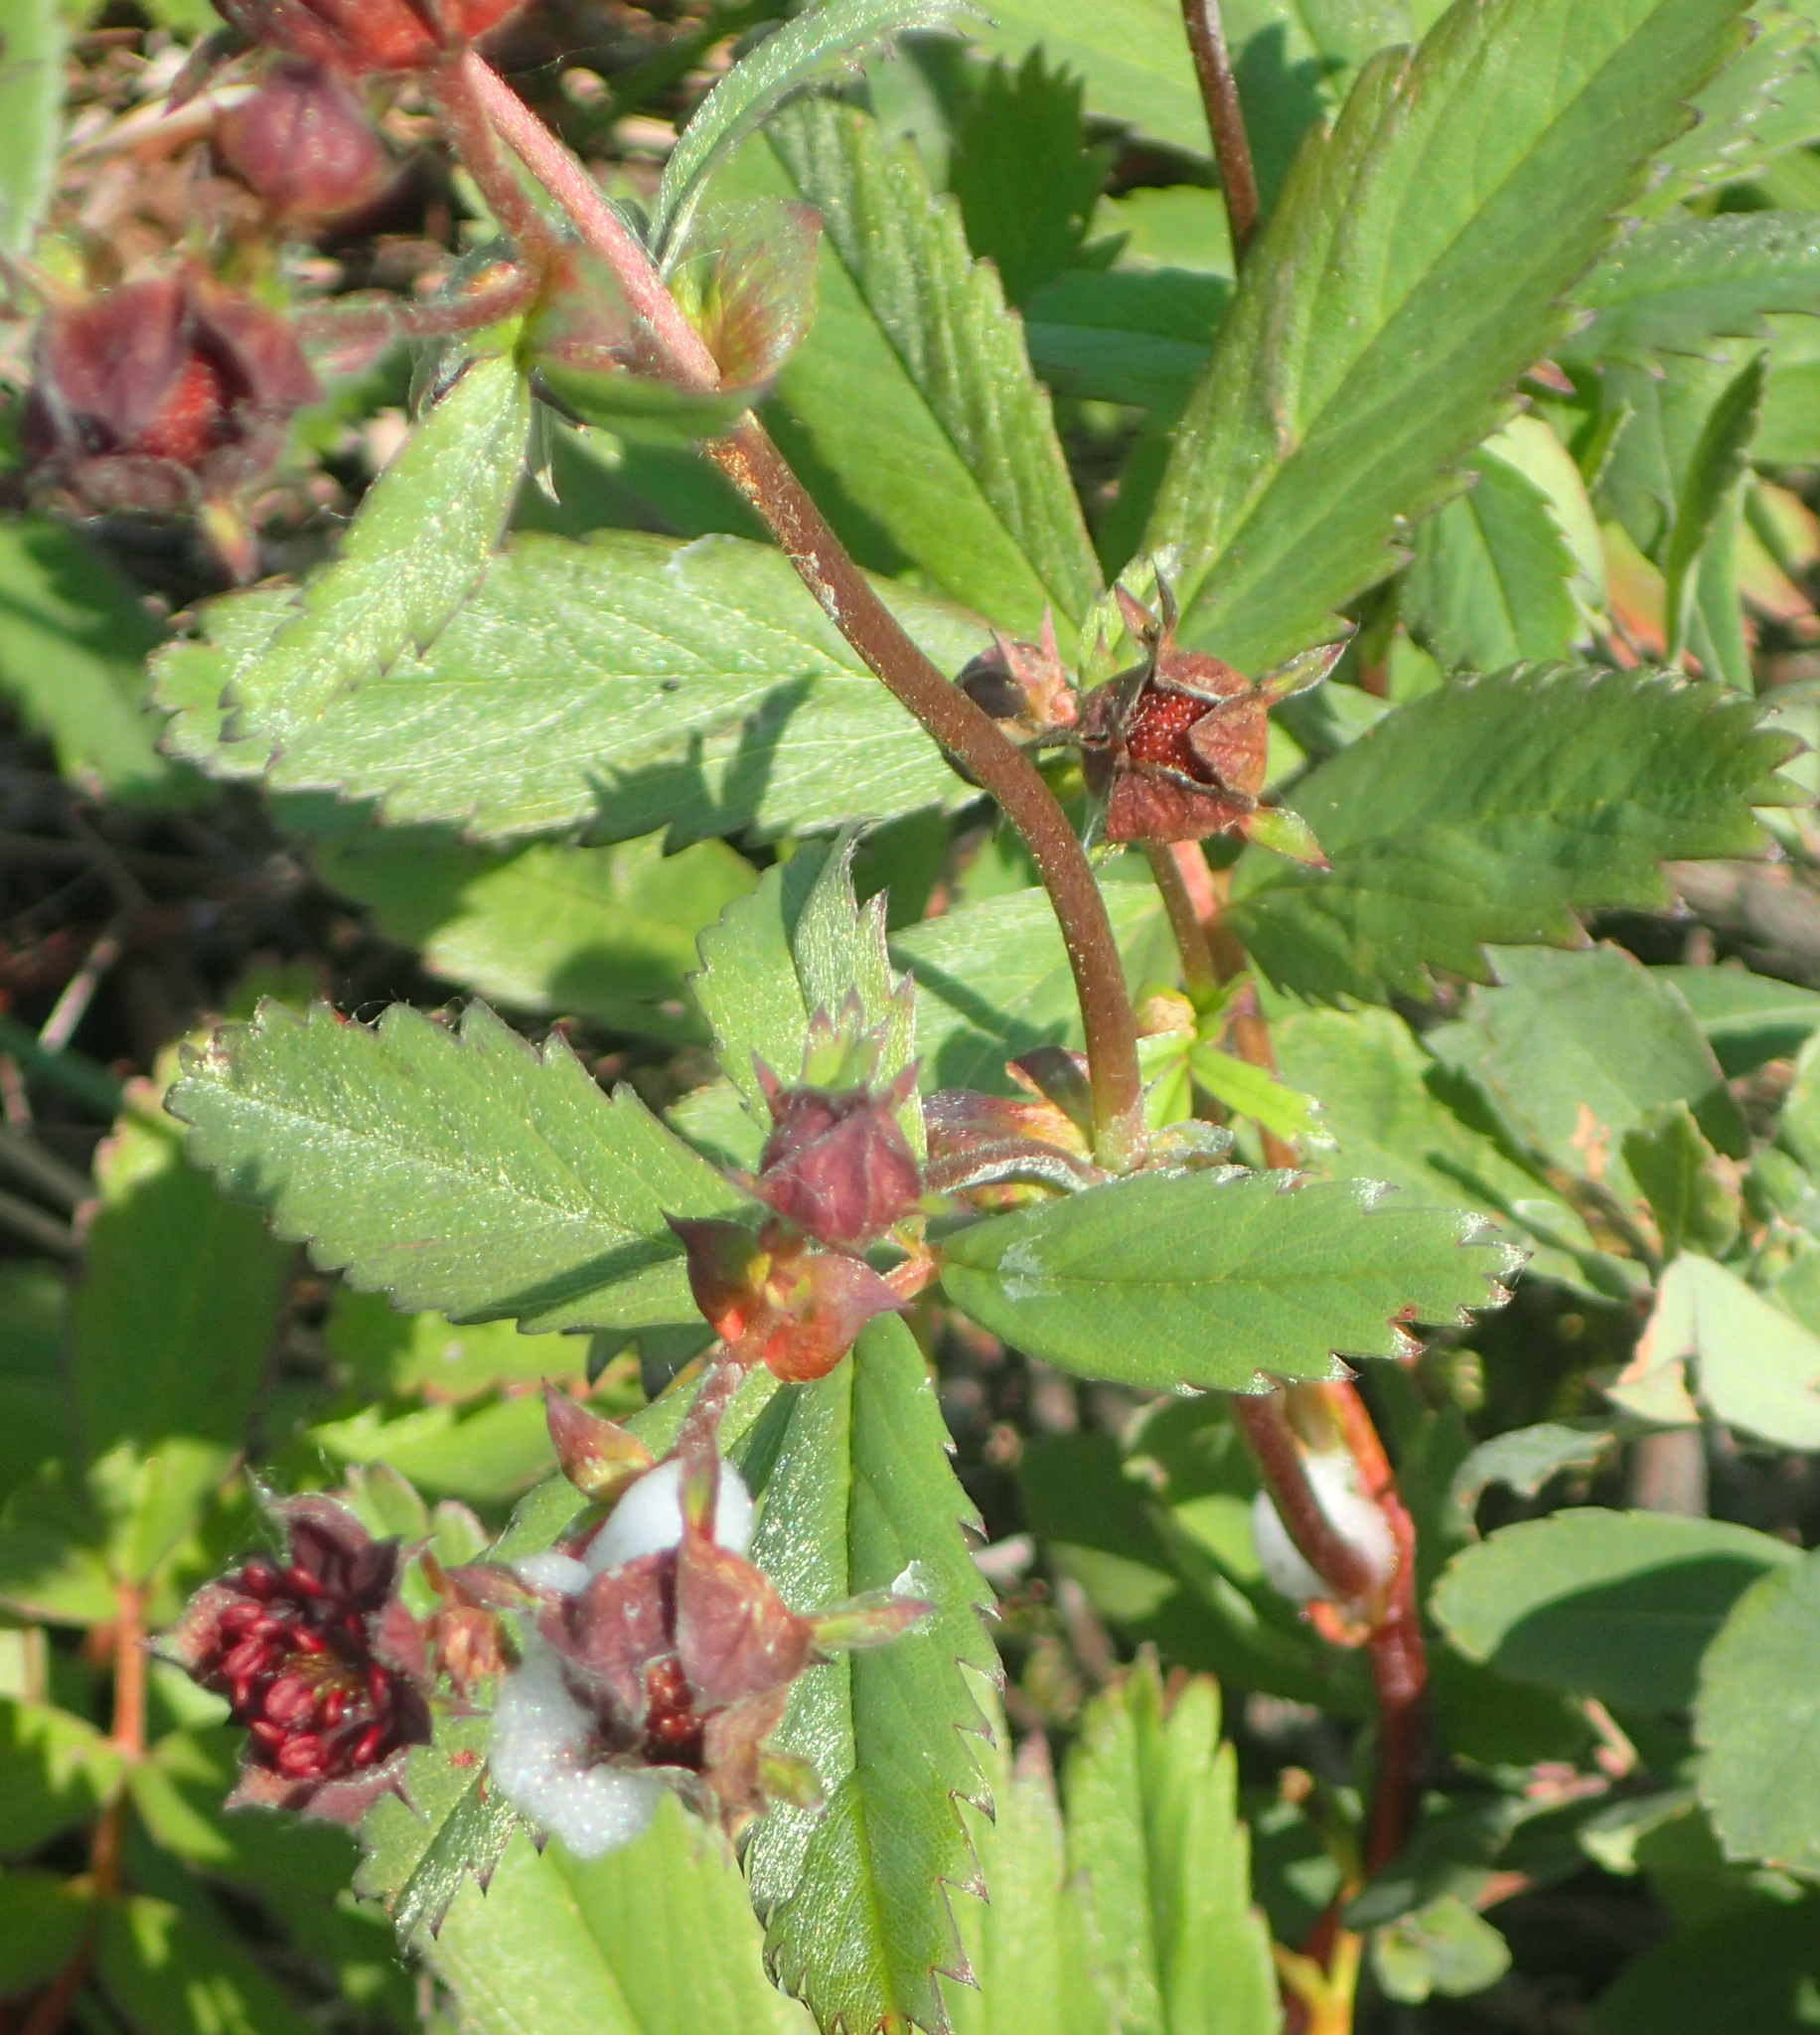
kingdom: Plantae
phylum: Tracheophyta
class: Magnoliopsida
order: Rosales
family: Rosaceae
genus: Comarum
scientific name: Comarum palustre
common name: Marsh cinquefoil
